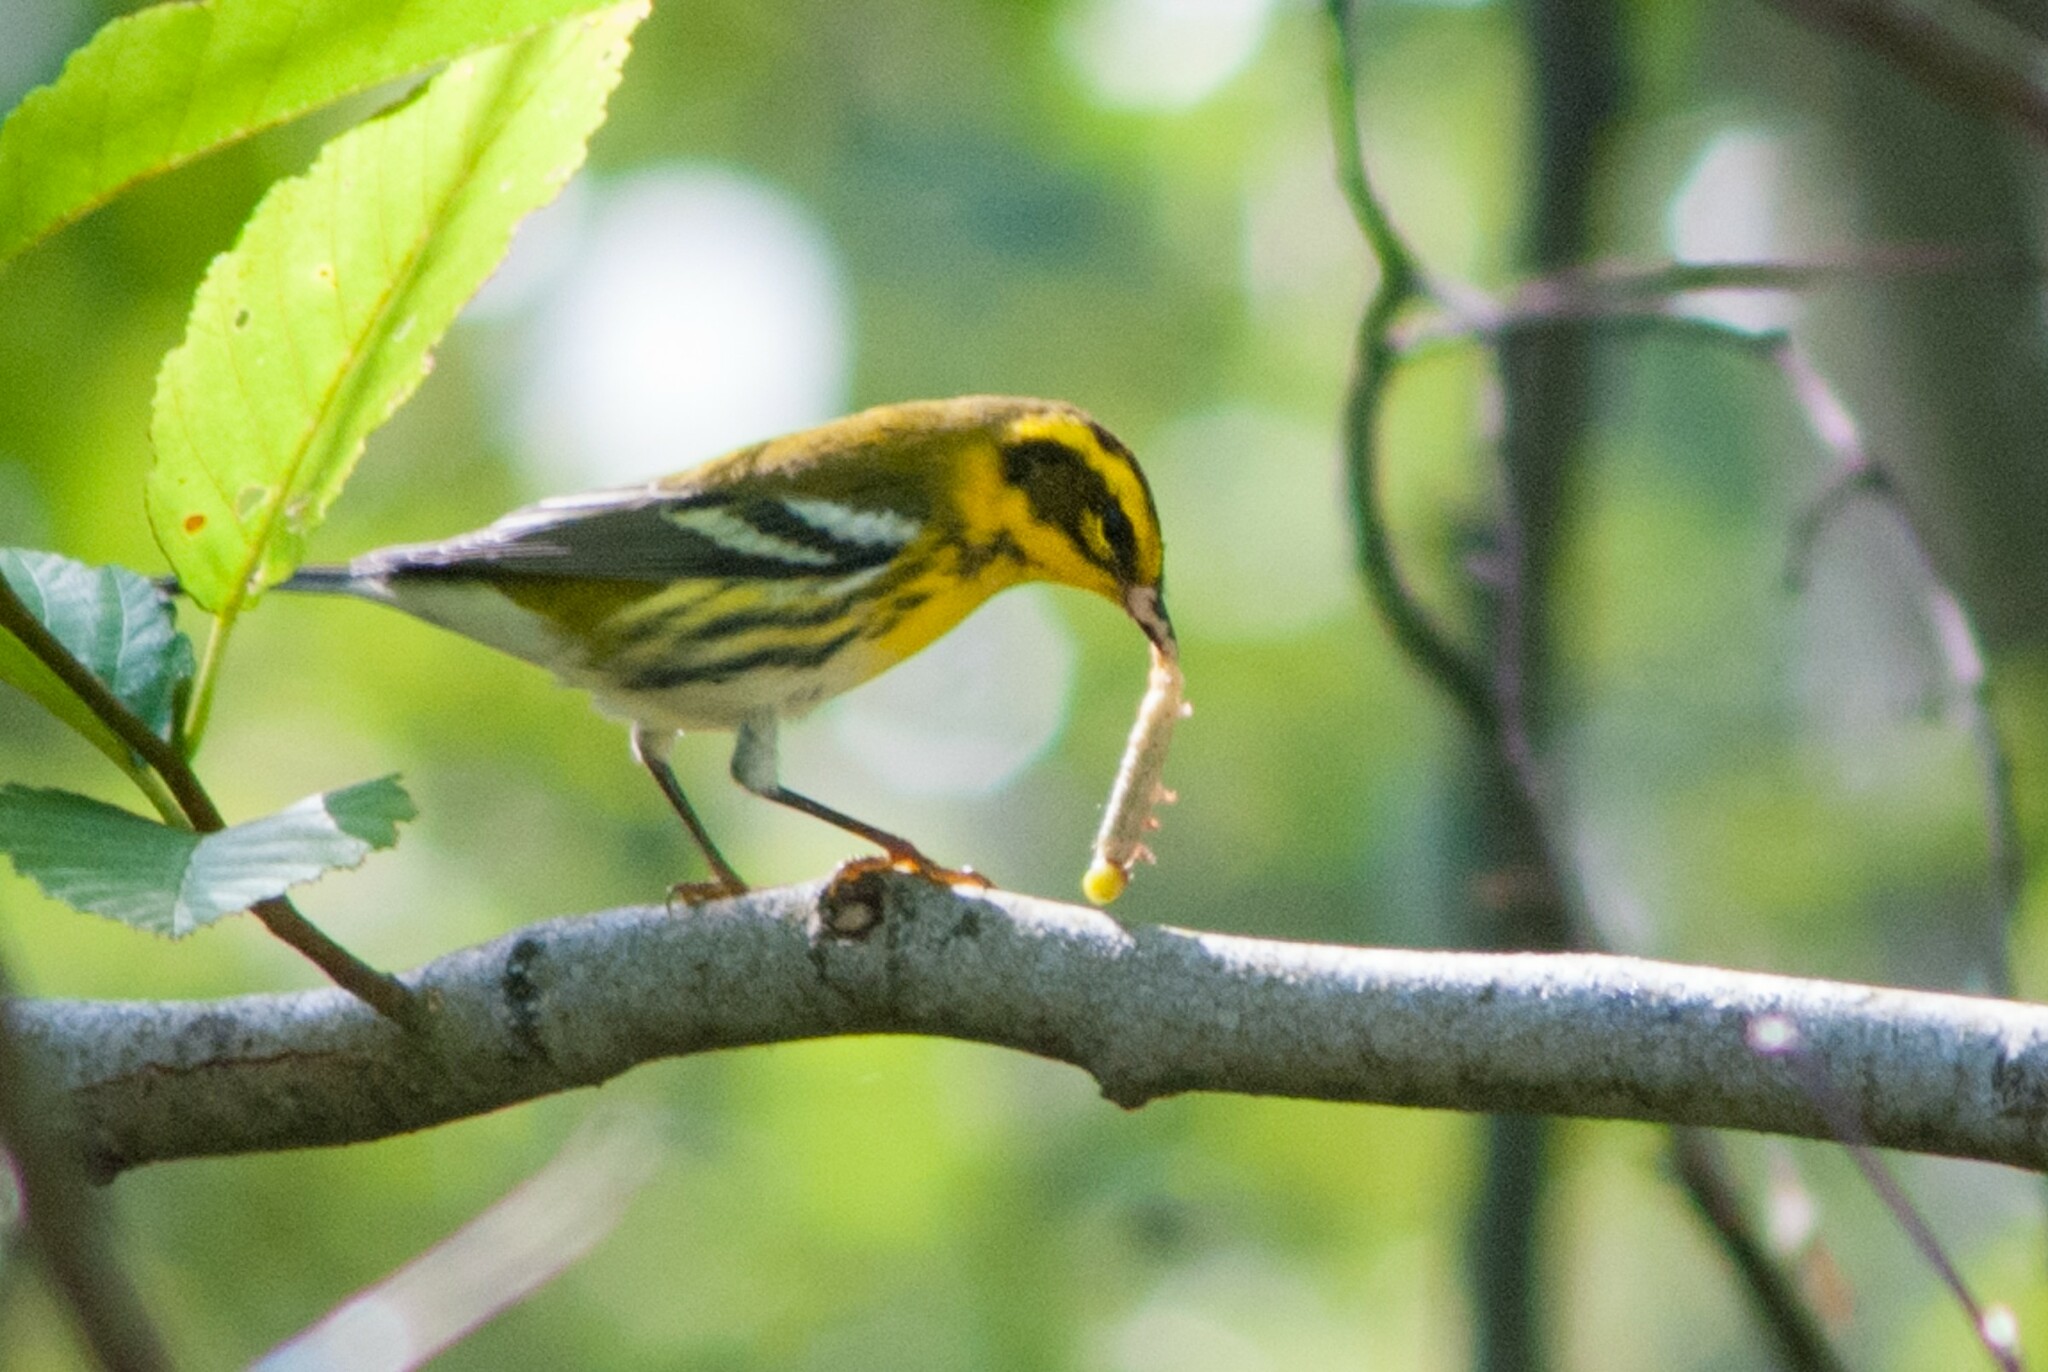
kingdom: Animalia
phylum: Chordata
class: Aves
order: Passeriformes
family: Parulidae
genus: Setophaga
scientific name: Setophaga townsendi
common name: Townsend's warbler
